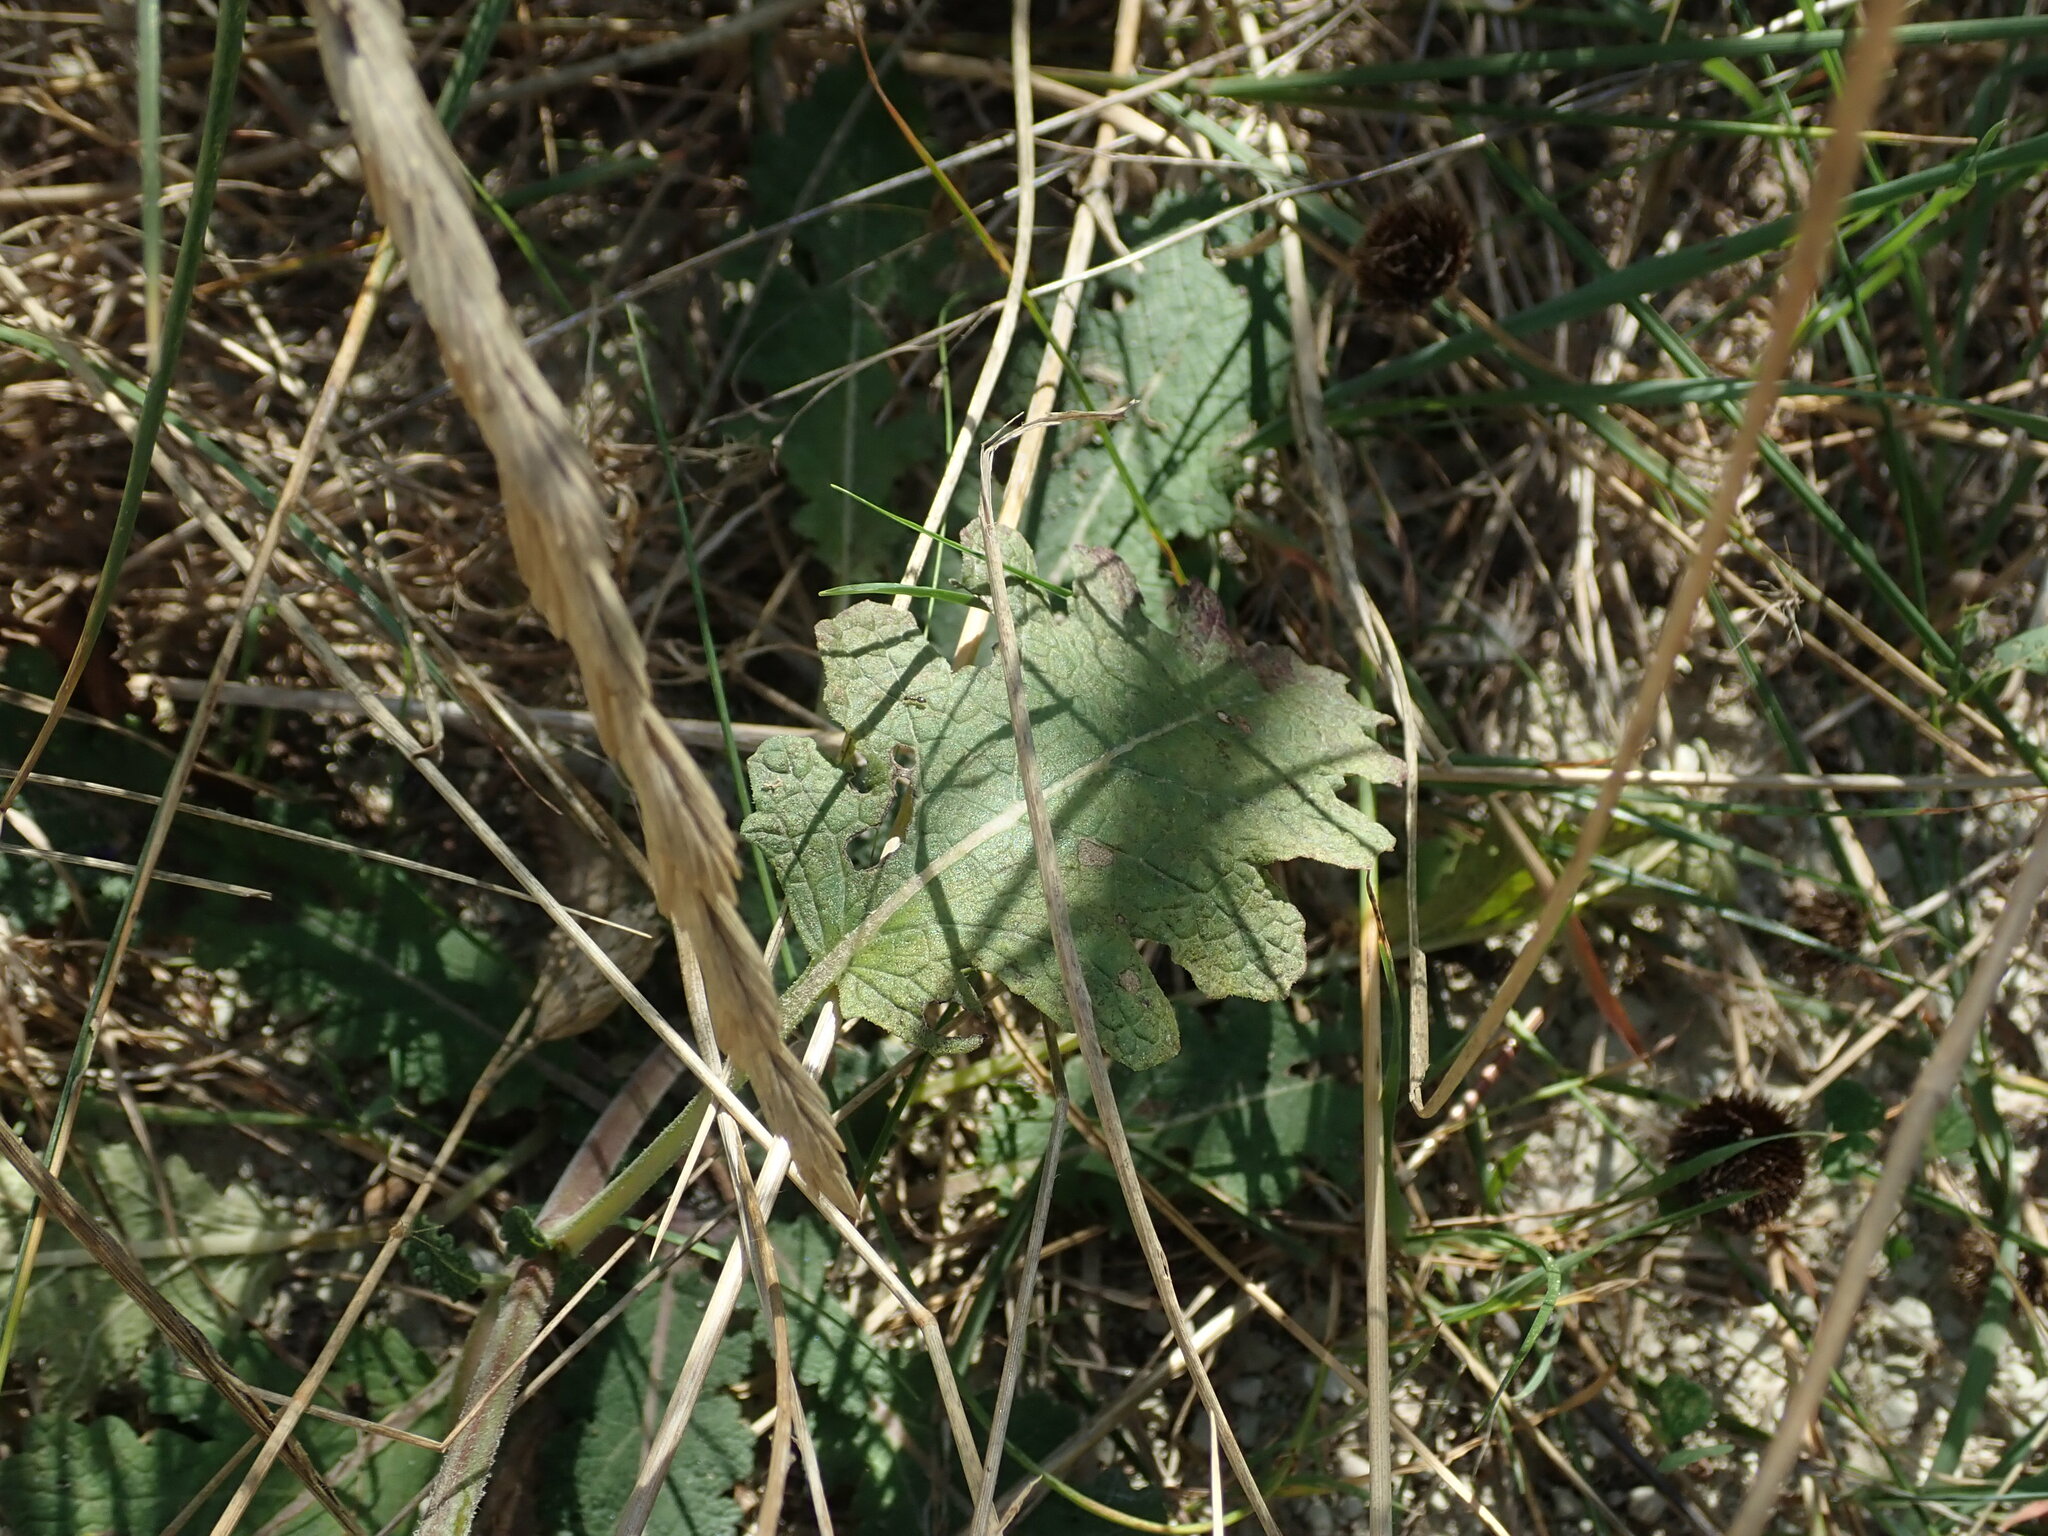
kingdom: Plantae
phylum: Tracheophyta
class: Magnoliopsida
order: Lamiales
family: Lamiaceae
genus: Salvia
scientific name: Salvia verbenaca
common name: Wild clary
